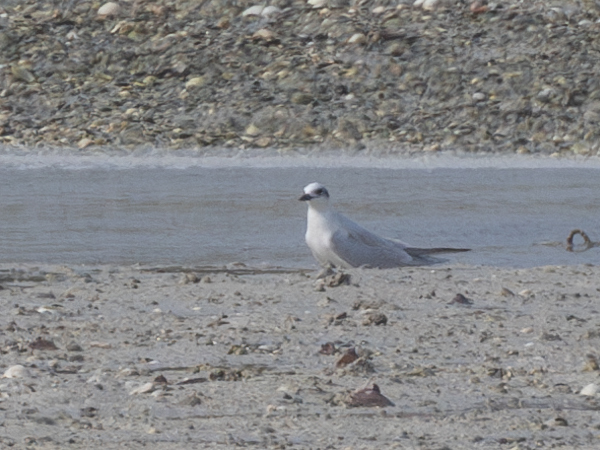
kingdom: Animalia
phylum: Chordata
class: Aves
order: Charadriiformes
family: Laridae
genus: Gelochelidon
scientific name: Gelochelidon nilotica
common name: Gull-billed tern
